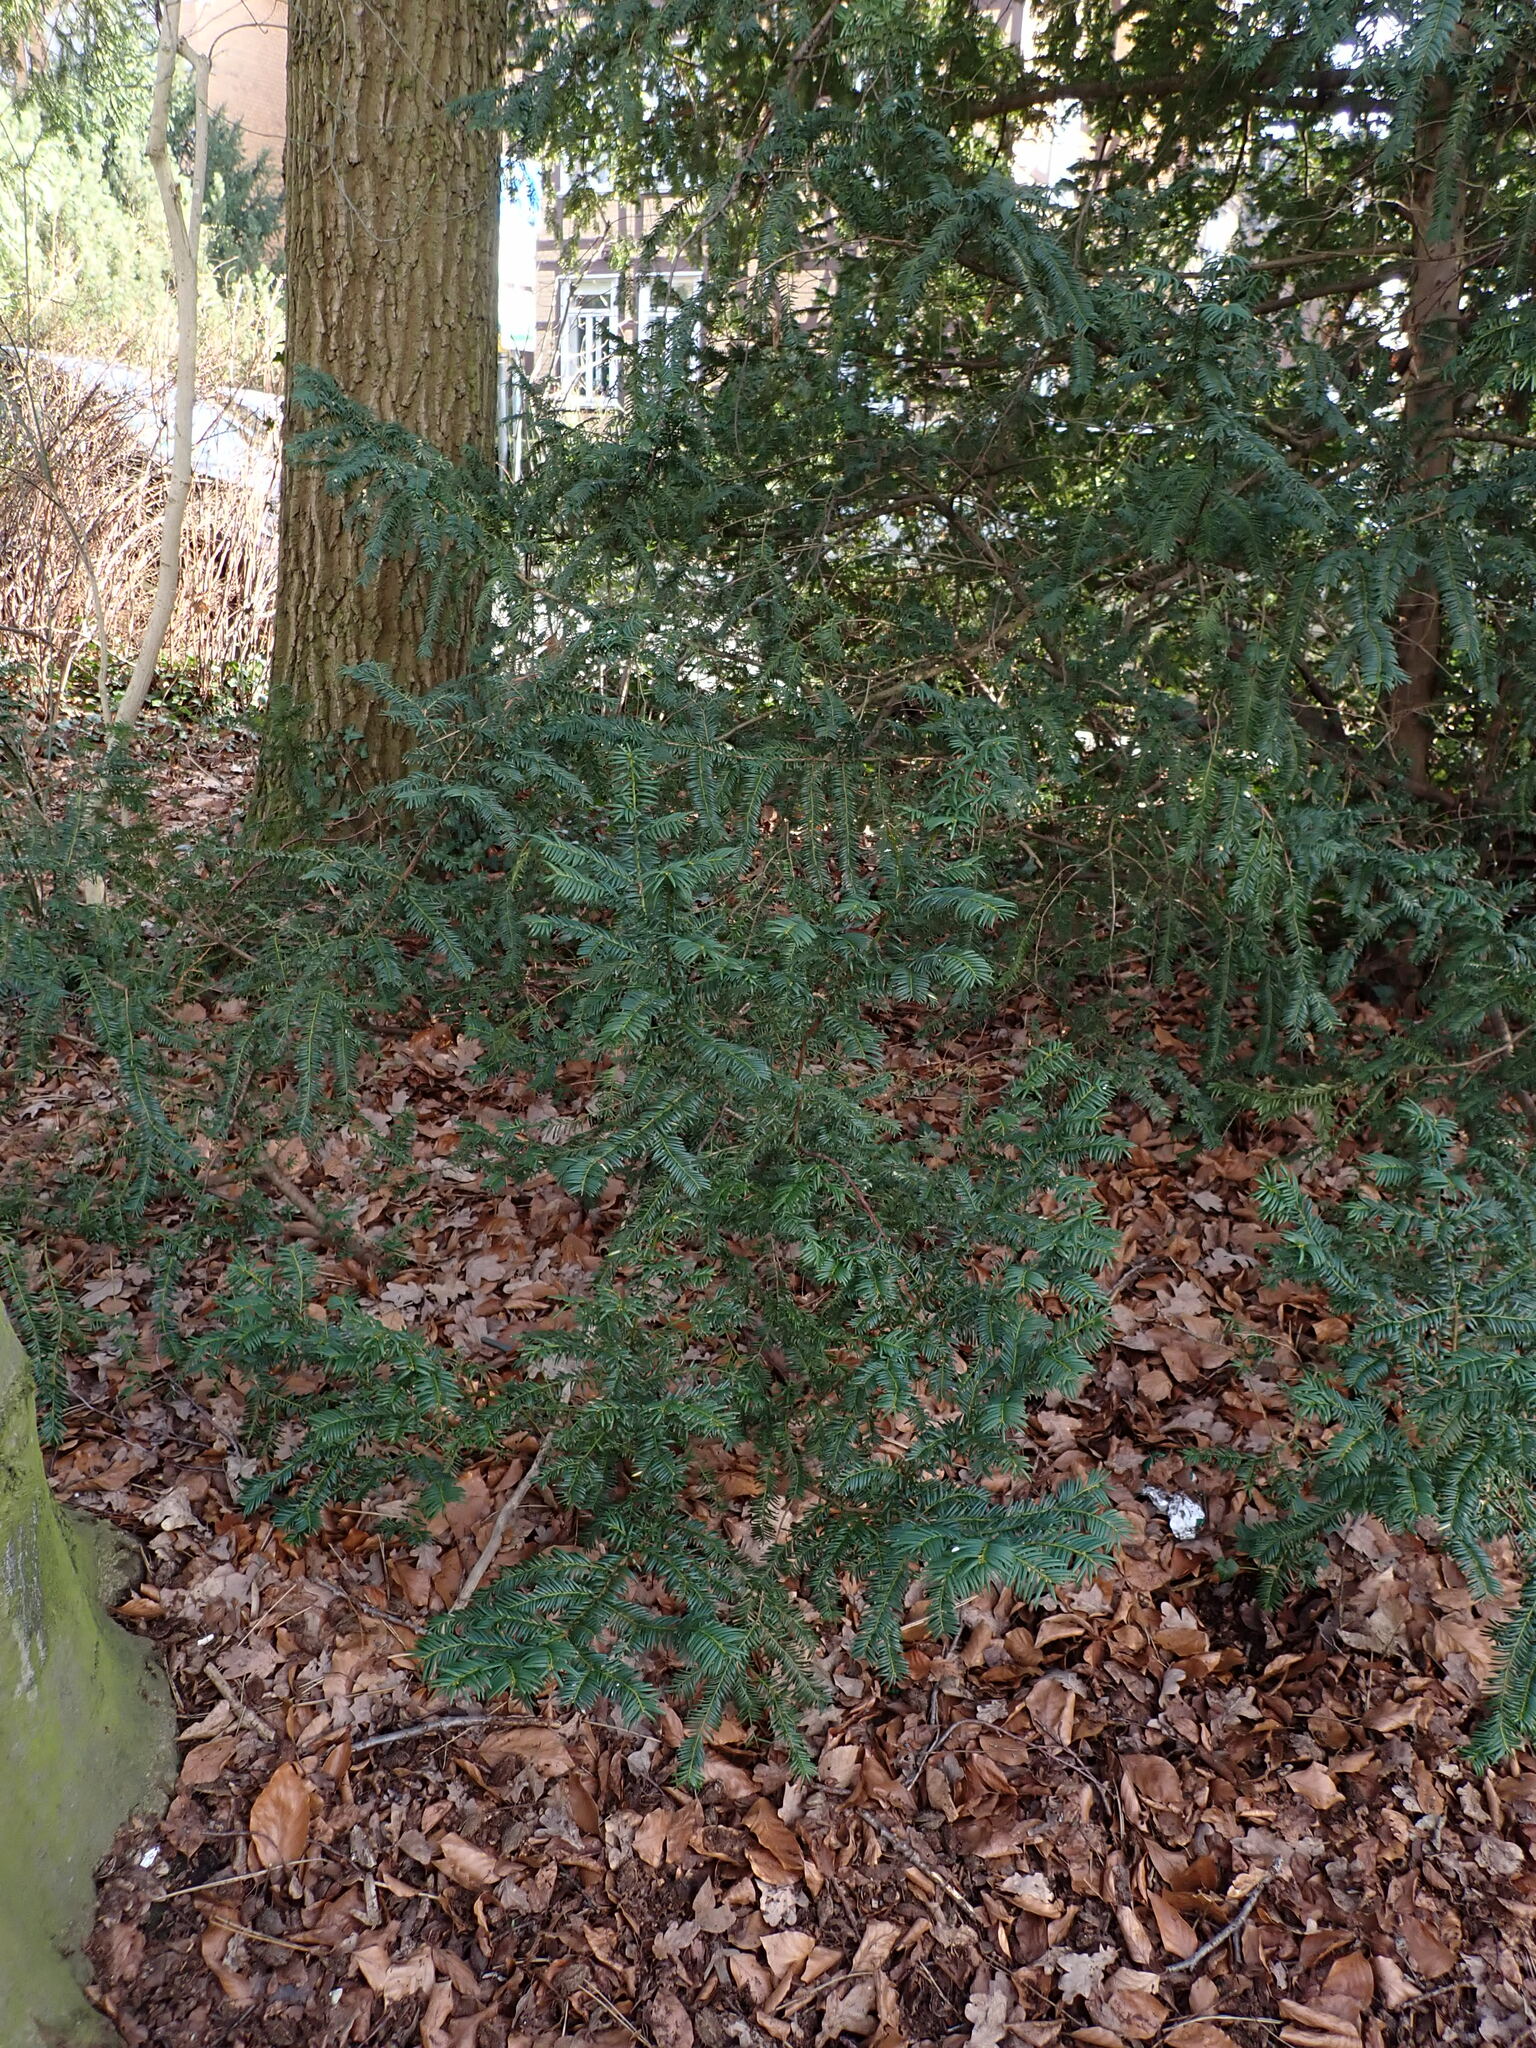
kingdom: Plantae
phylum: Tracheophyta
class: Pinopsida
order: Pinales
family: Taxaceae
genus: Taxus
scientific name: Taxus baccata
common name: Yew
